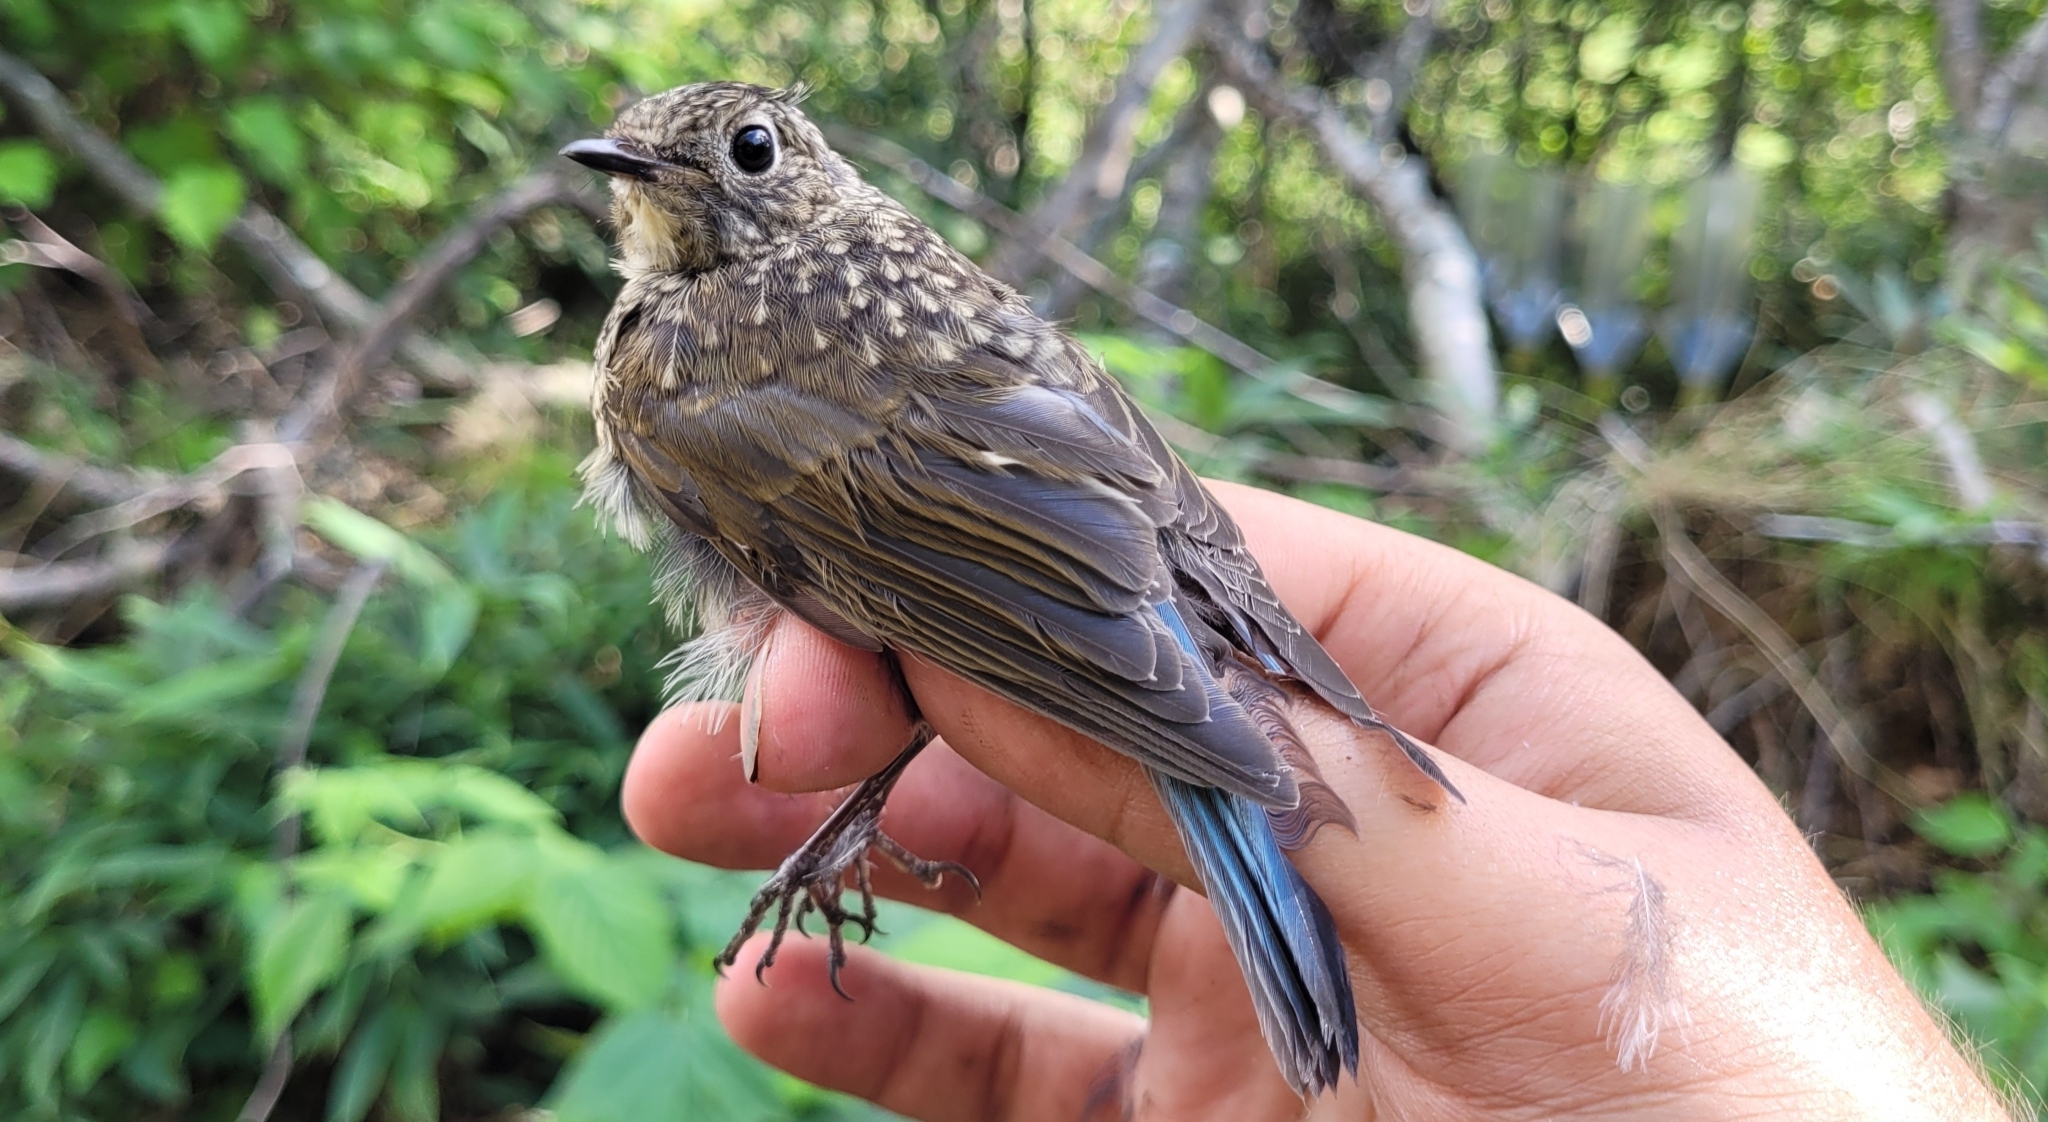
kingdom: Animalia
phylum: Chordata
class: Aves
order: Passeriformes
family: Muscicapidae
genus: Tarsiger
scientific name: Tarsiger cyanurus
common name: Red-flanked bluetail
